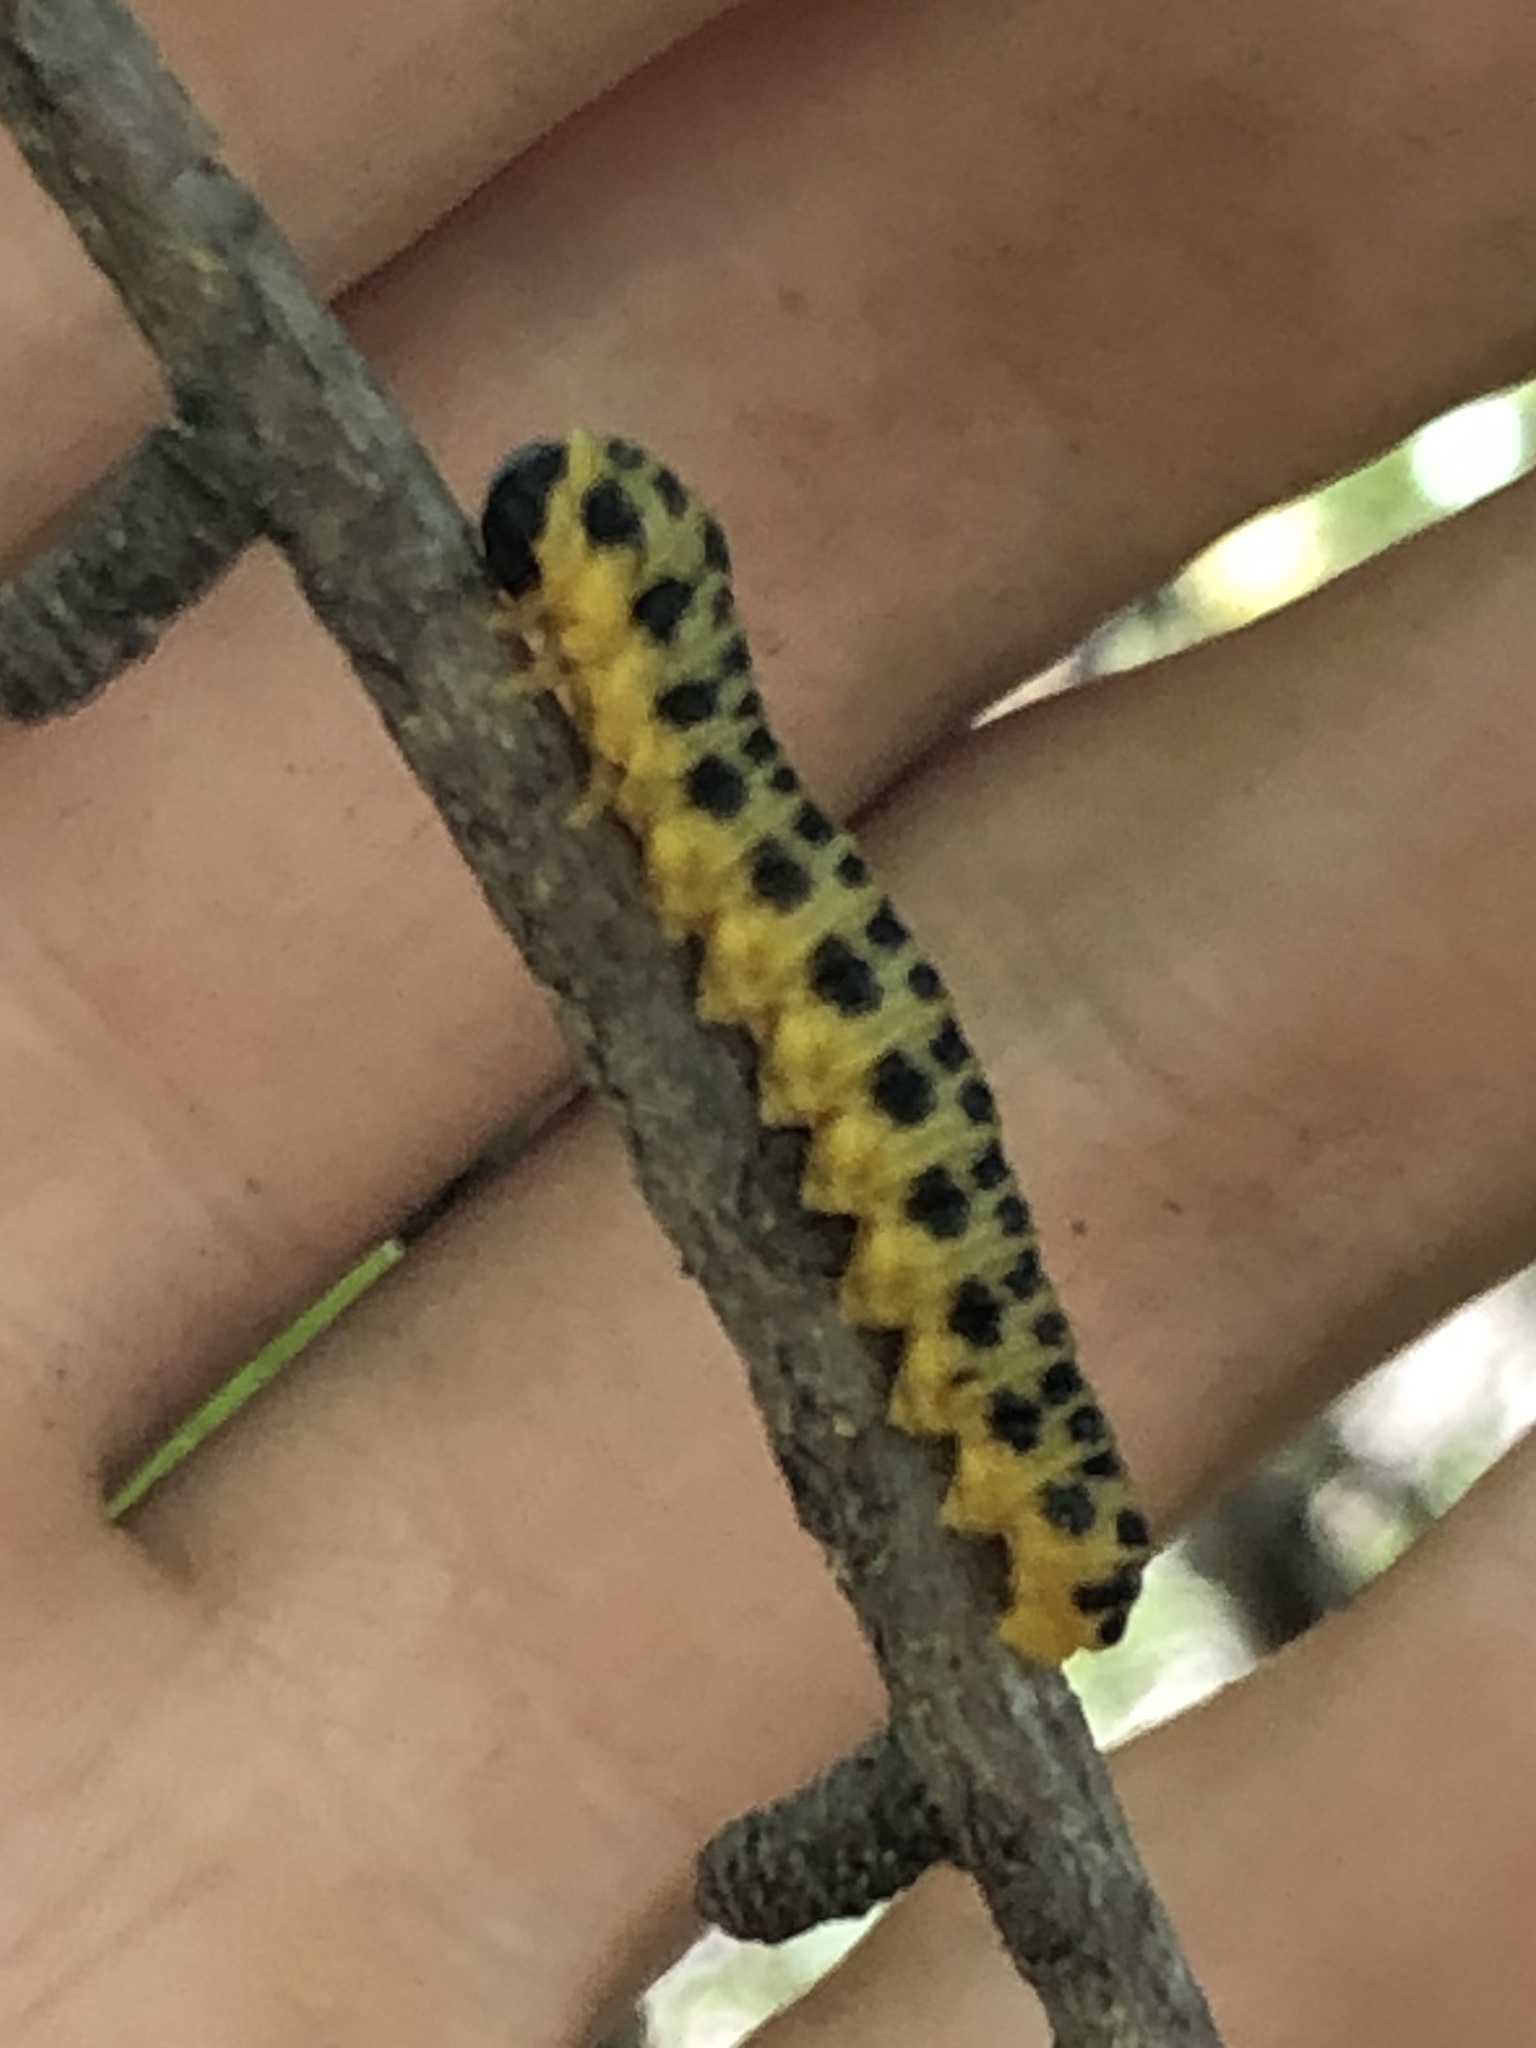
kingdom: Animalia
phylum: Arthropoda
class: Insecta
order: Hymenoptera
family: Tenthredinidae
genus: Macremphytus
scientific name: Macremphytus testaceus
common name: Dogwood sawfly
